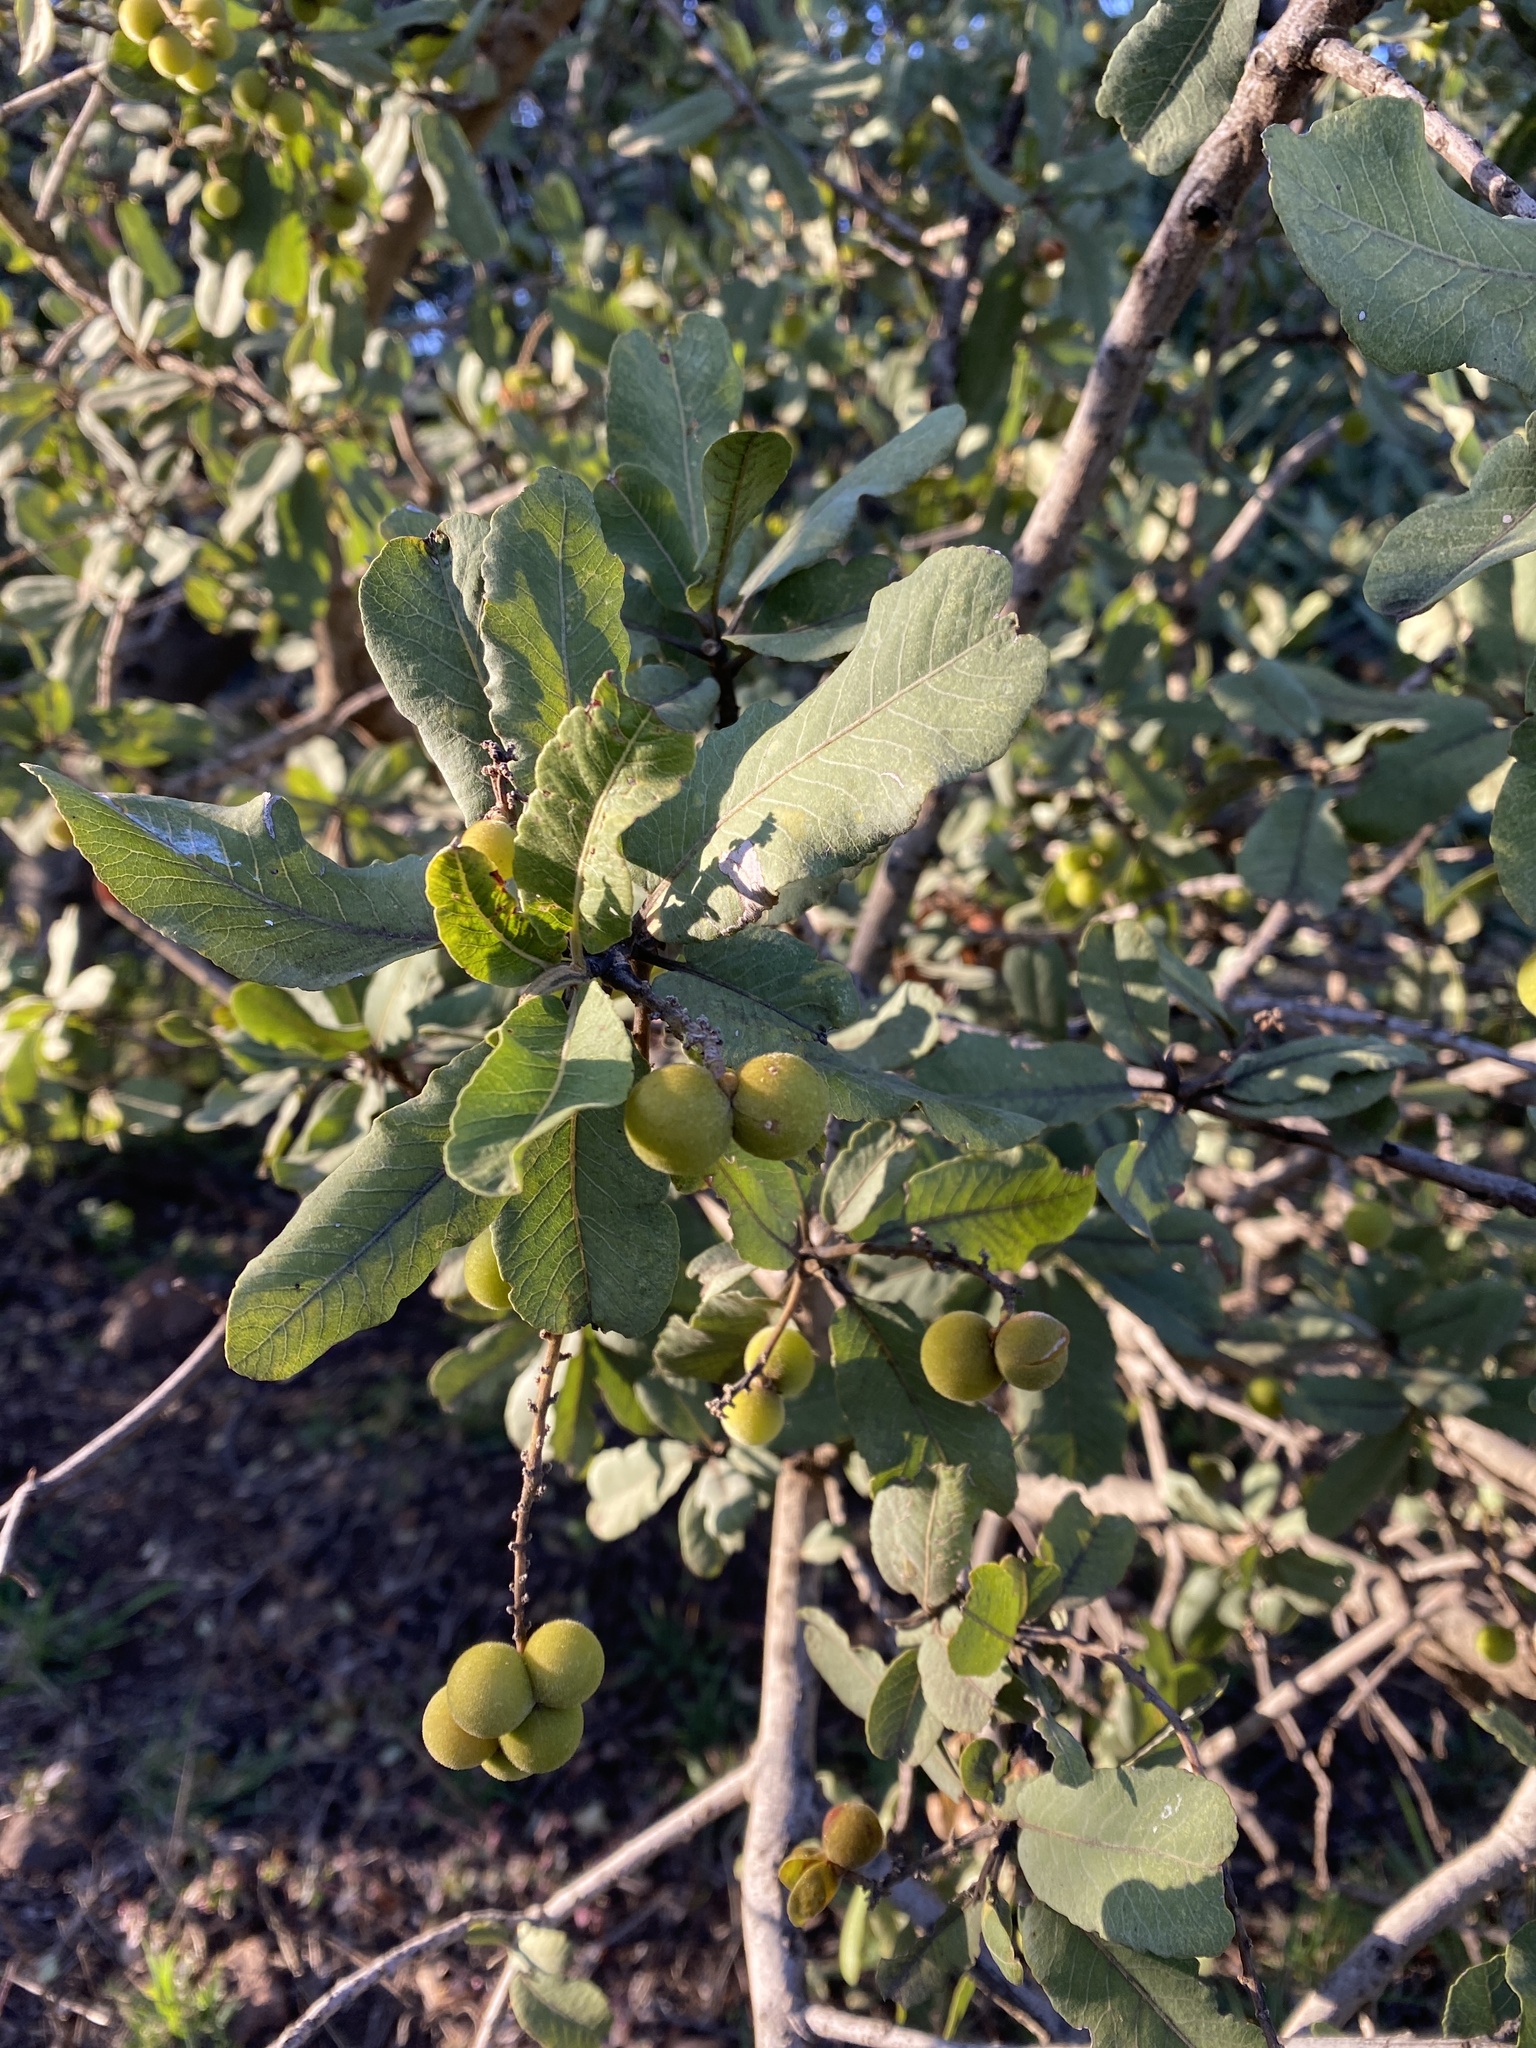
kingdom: Plantae
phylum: Tracheophyta
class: Magnoliopsida
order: Sapindales
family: Sapindaceae
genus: Pappea
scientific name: Pappea capensis
